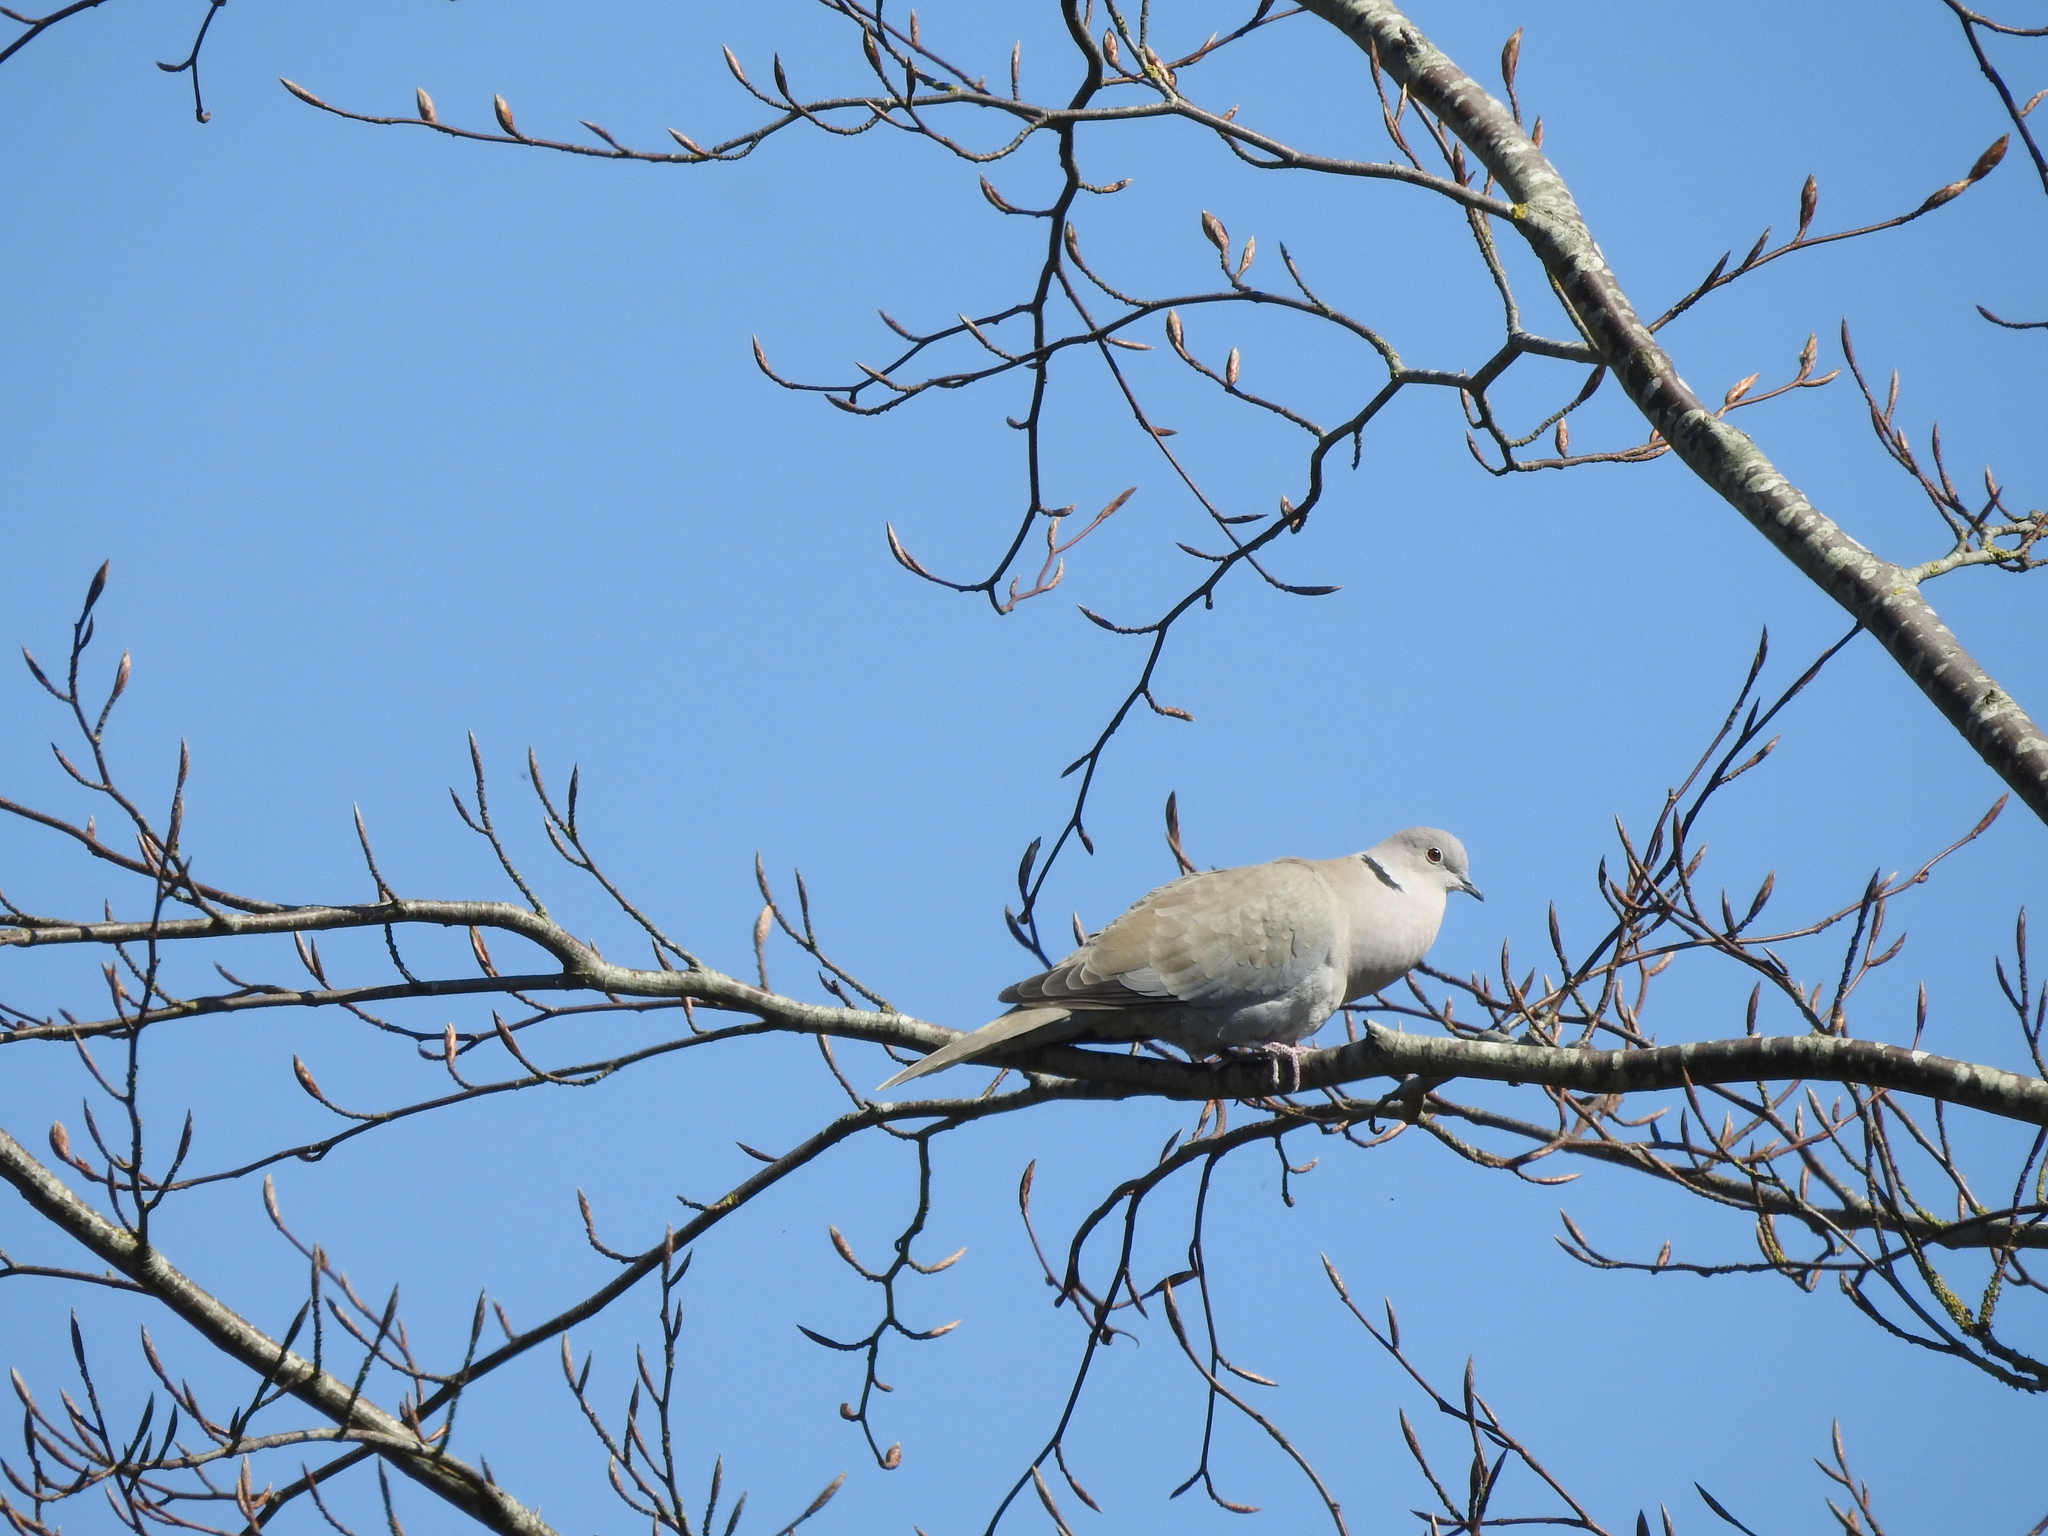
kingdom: Animalia
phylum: Chordata
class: Aves
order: Columbiformes
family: Columbidae
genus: Streptopelia
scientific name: Streptopelia decaocto
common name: Eurasian collared dove
